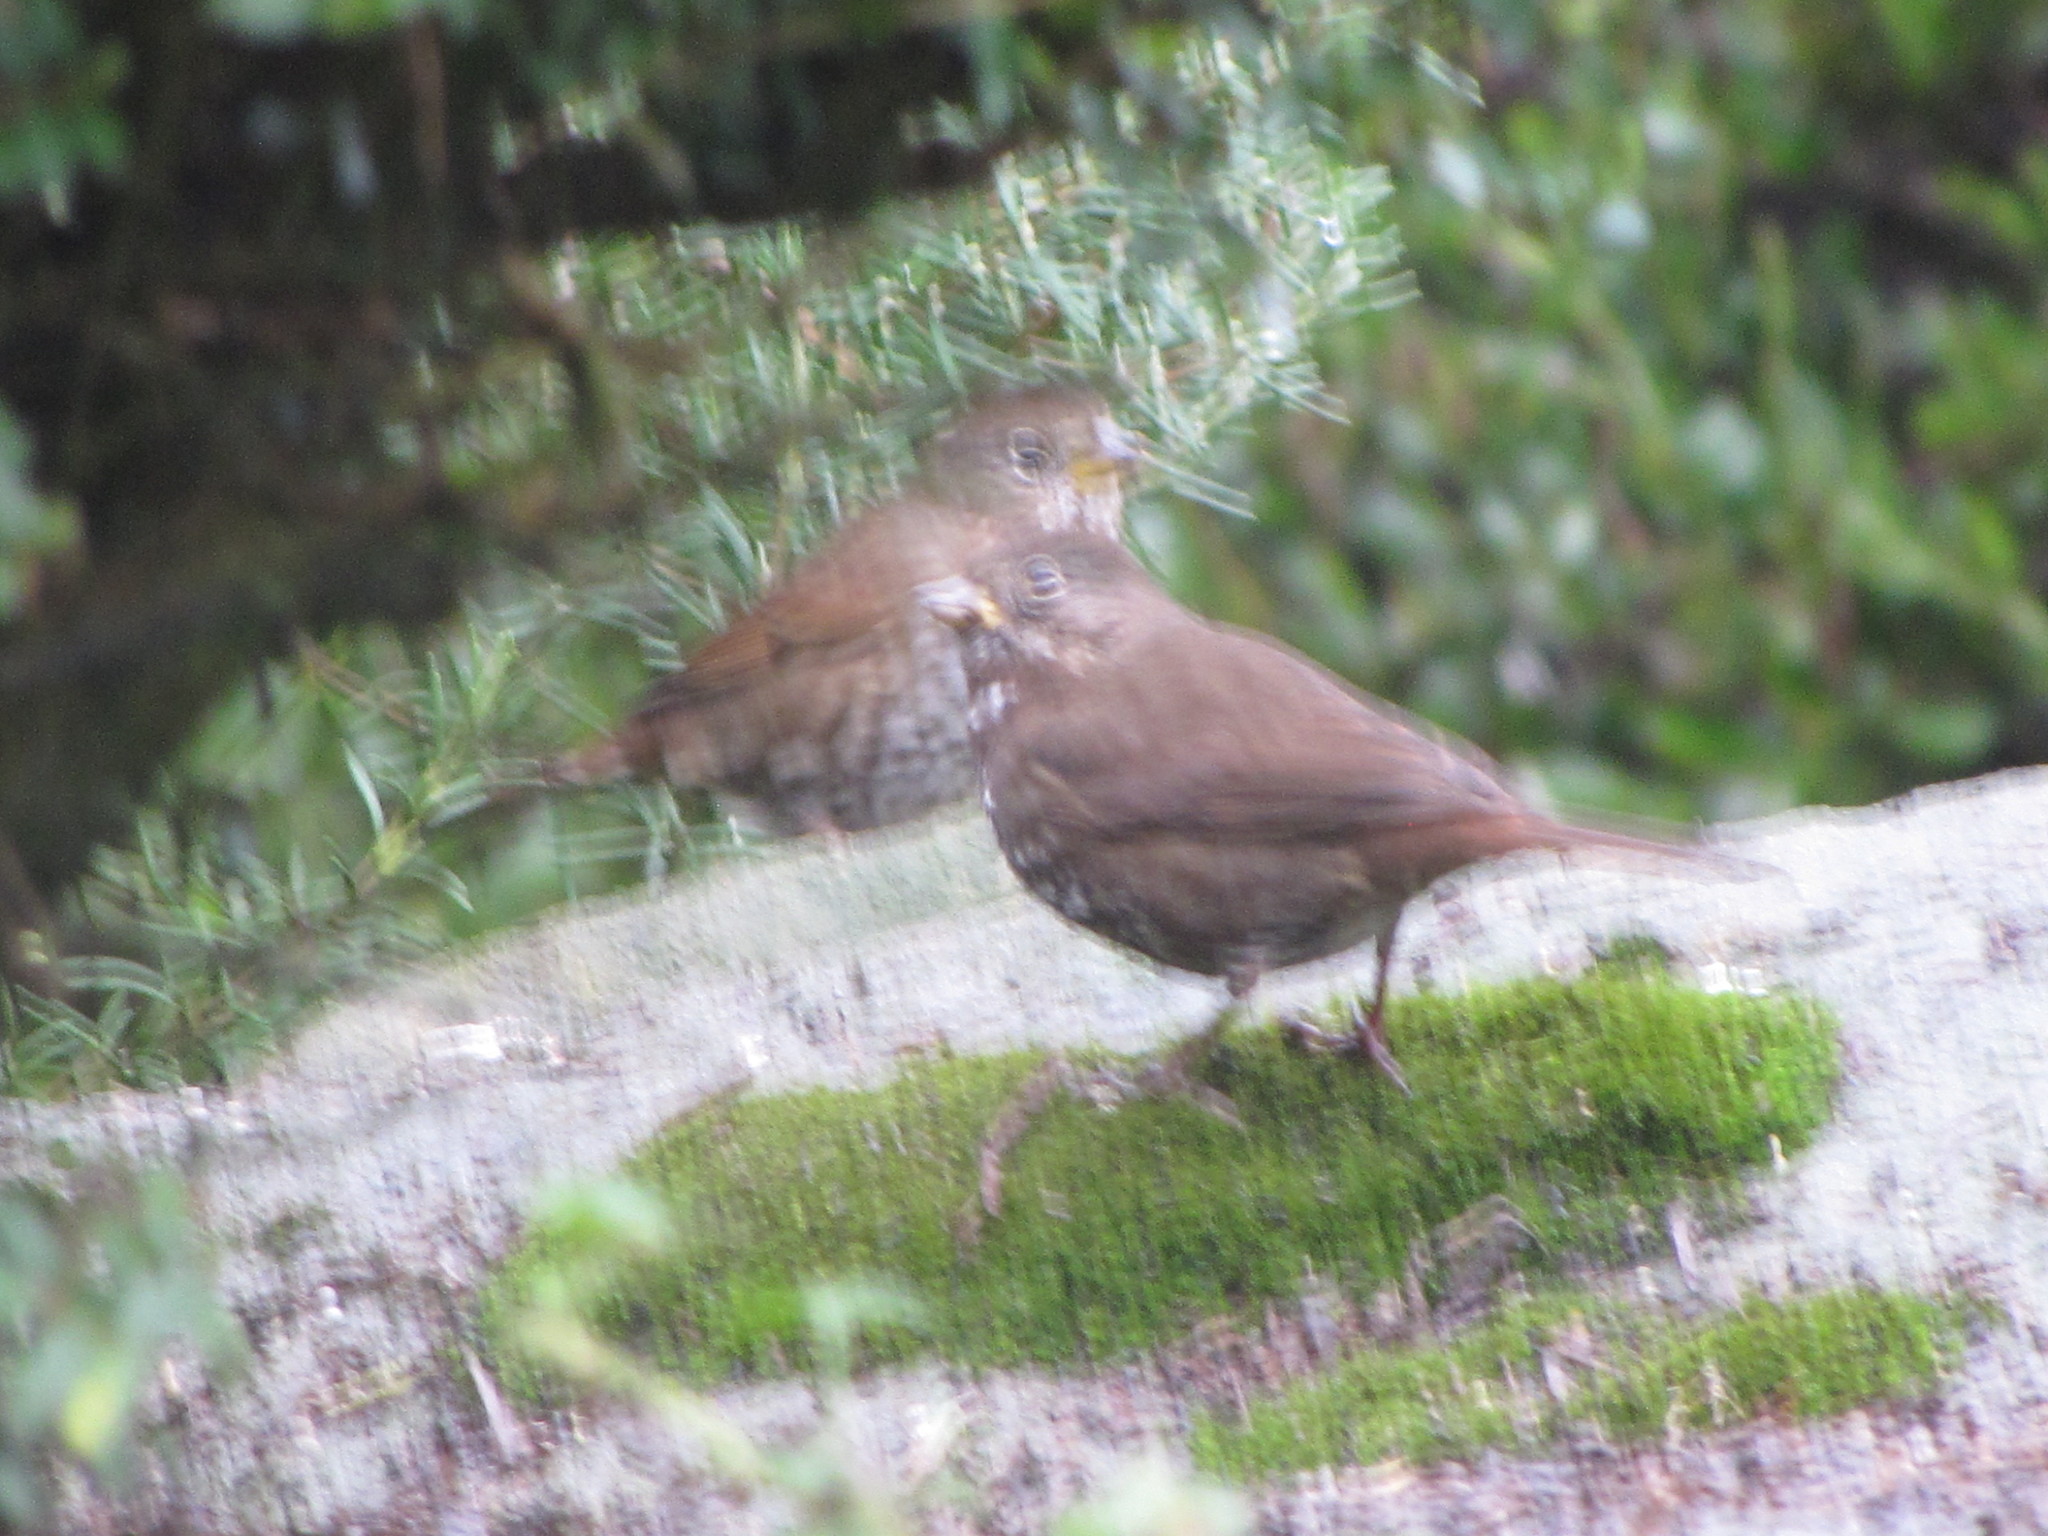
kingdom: Animalia
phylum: Chordata
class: Aves
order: Passeriformes
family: Passerellidae
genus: Passerella
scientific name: Passerella iliaca
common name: Fox sparrow
